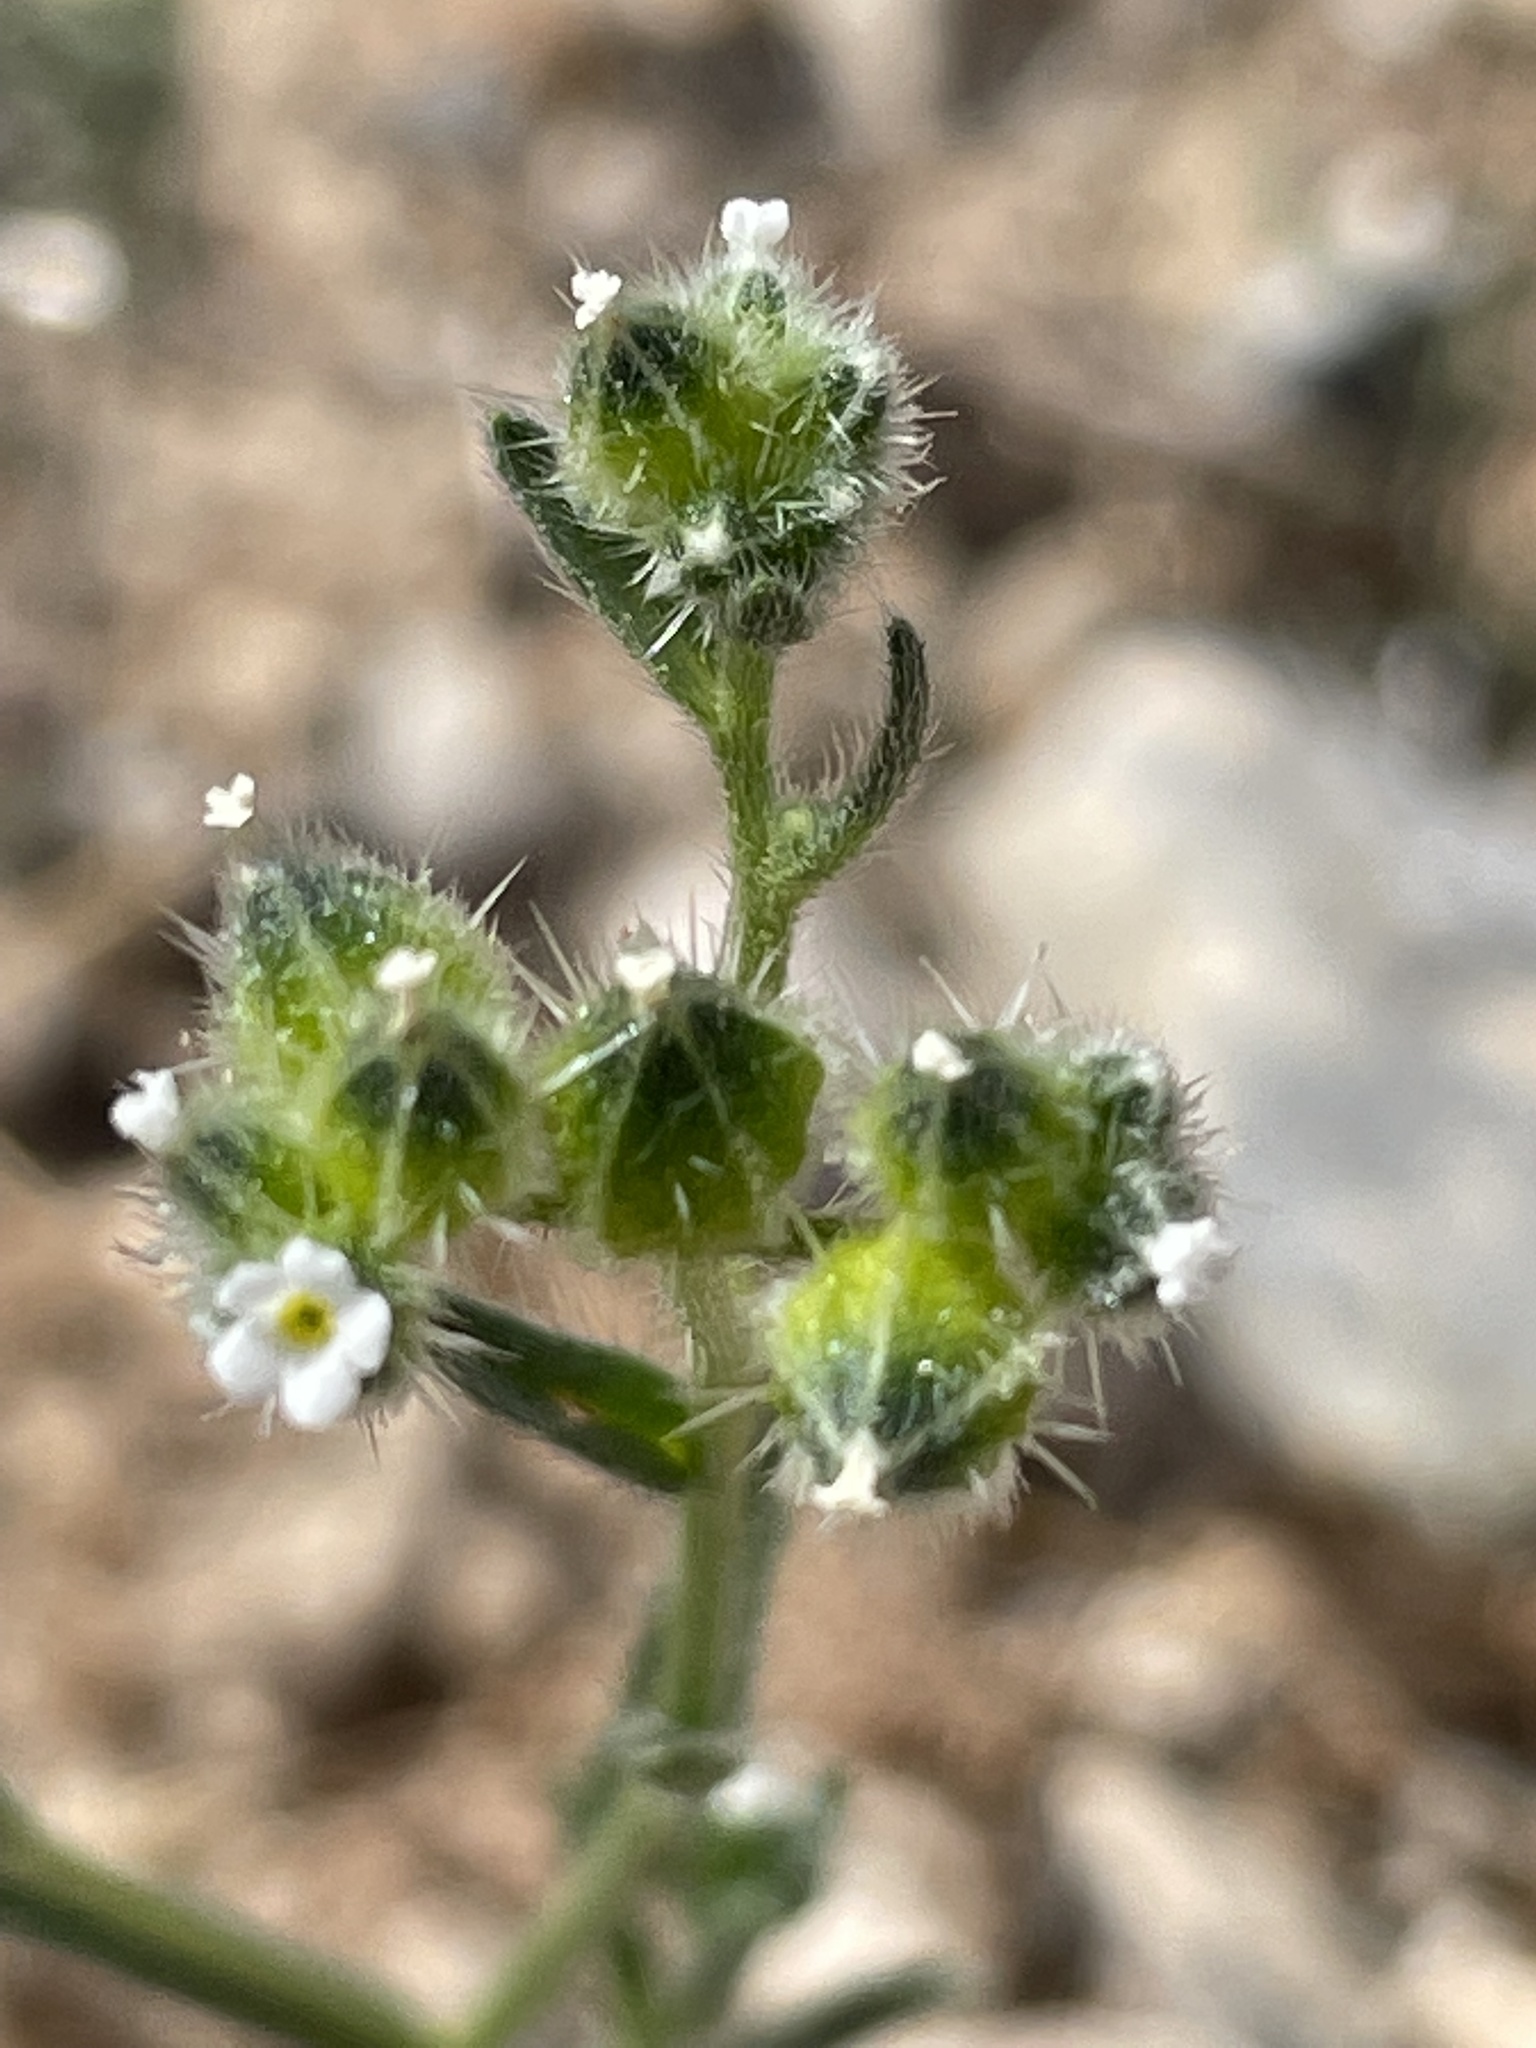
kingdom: Plantae
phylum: Tracheophyta
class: Magnoliopsida
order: Boraginales
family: Boraginaceae
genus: Cryptantha
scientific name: Cryptantha pterocarya
